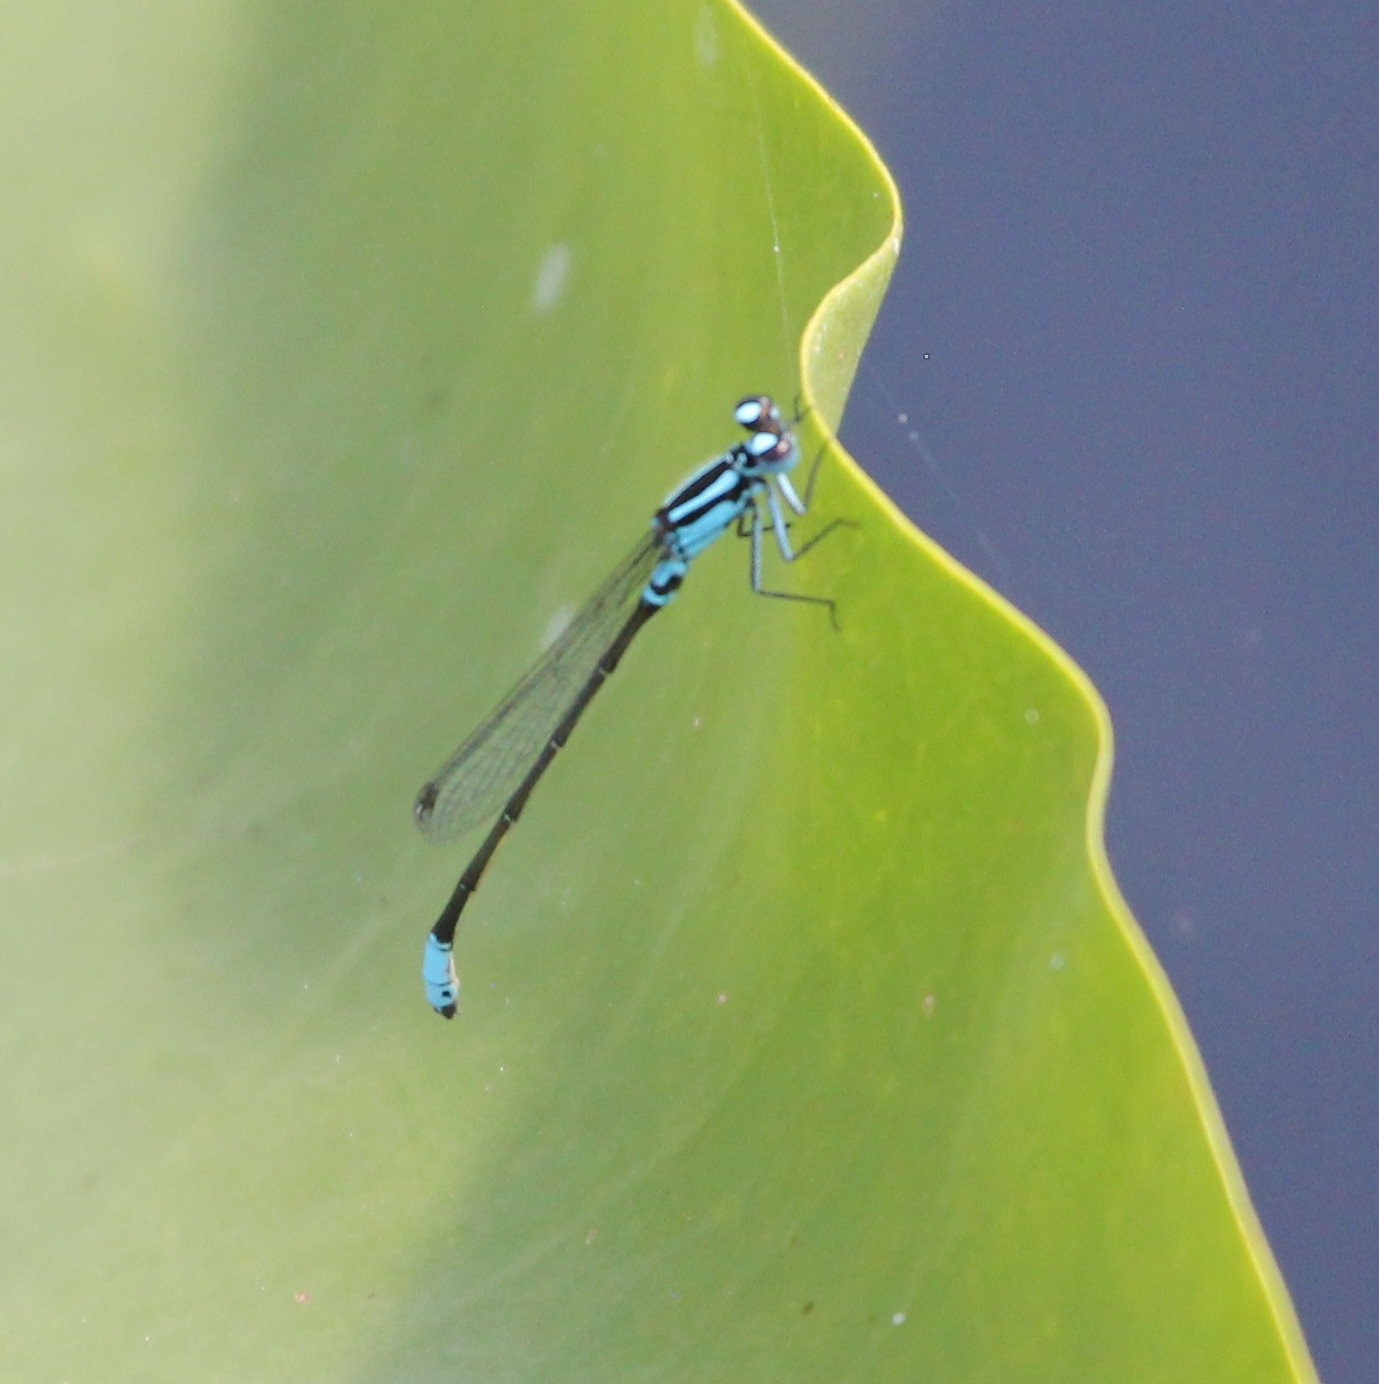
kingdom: Animalia
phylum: Arthropoda
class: Insecta
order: Odonata
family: Coenagrionidae
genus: Ischnura
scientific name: Ischnura kellicotti
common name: Lilypad forktail
